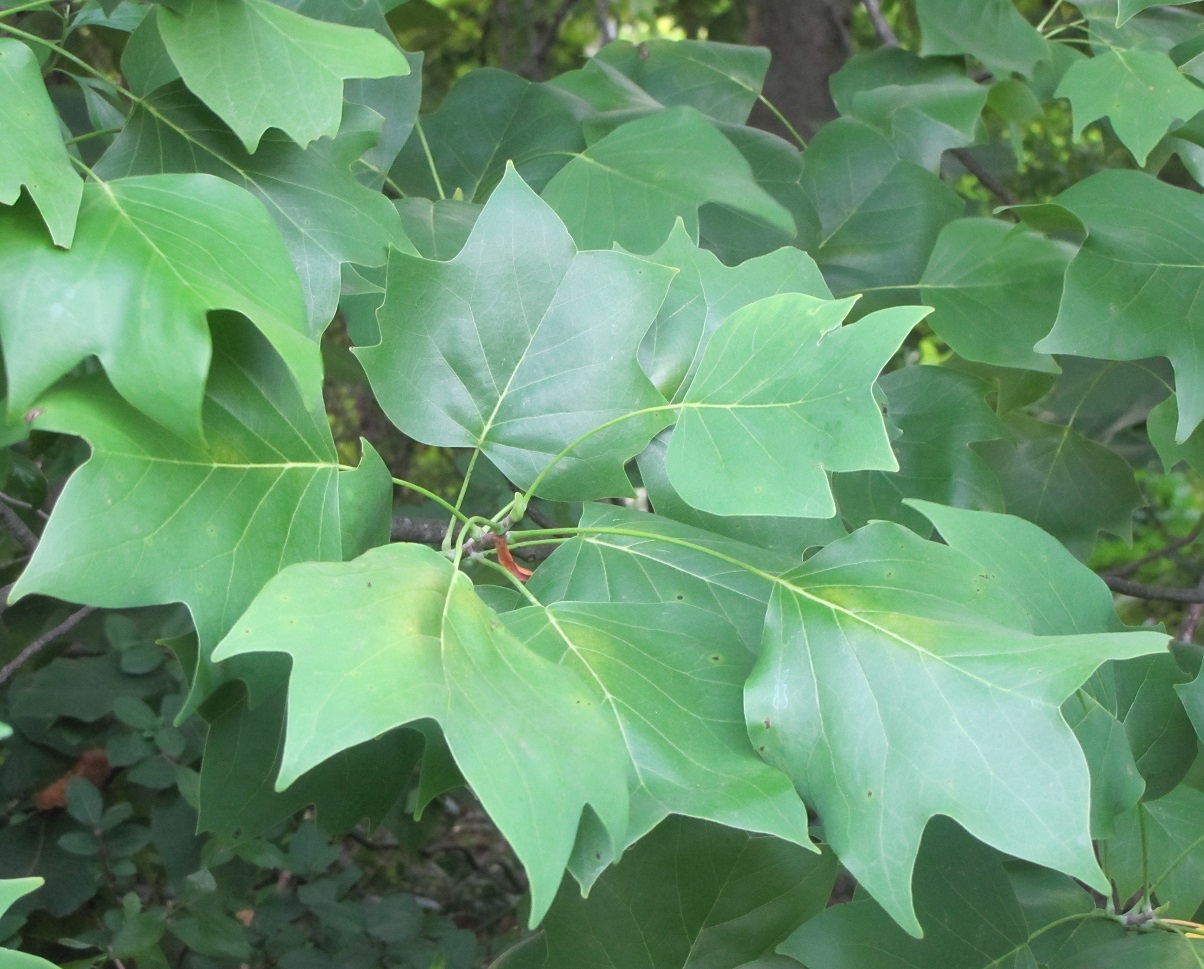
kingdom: Plantae
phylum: Tracheophyta
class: Magnoliopsida
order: Magnoliales
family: Magnoliaceae
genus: Liriodendron
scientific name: Liriodendron tulipifera
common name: Tulip tree
